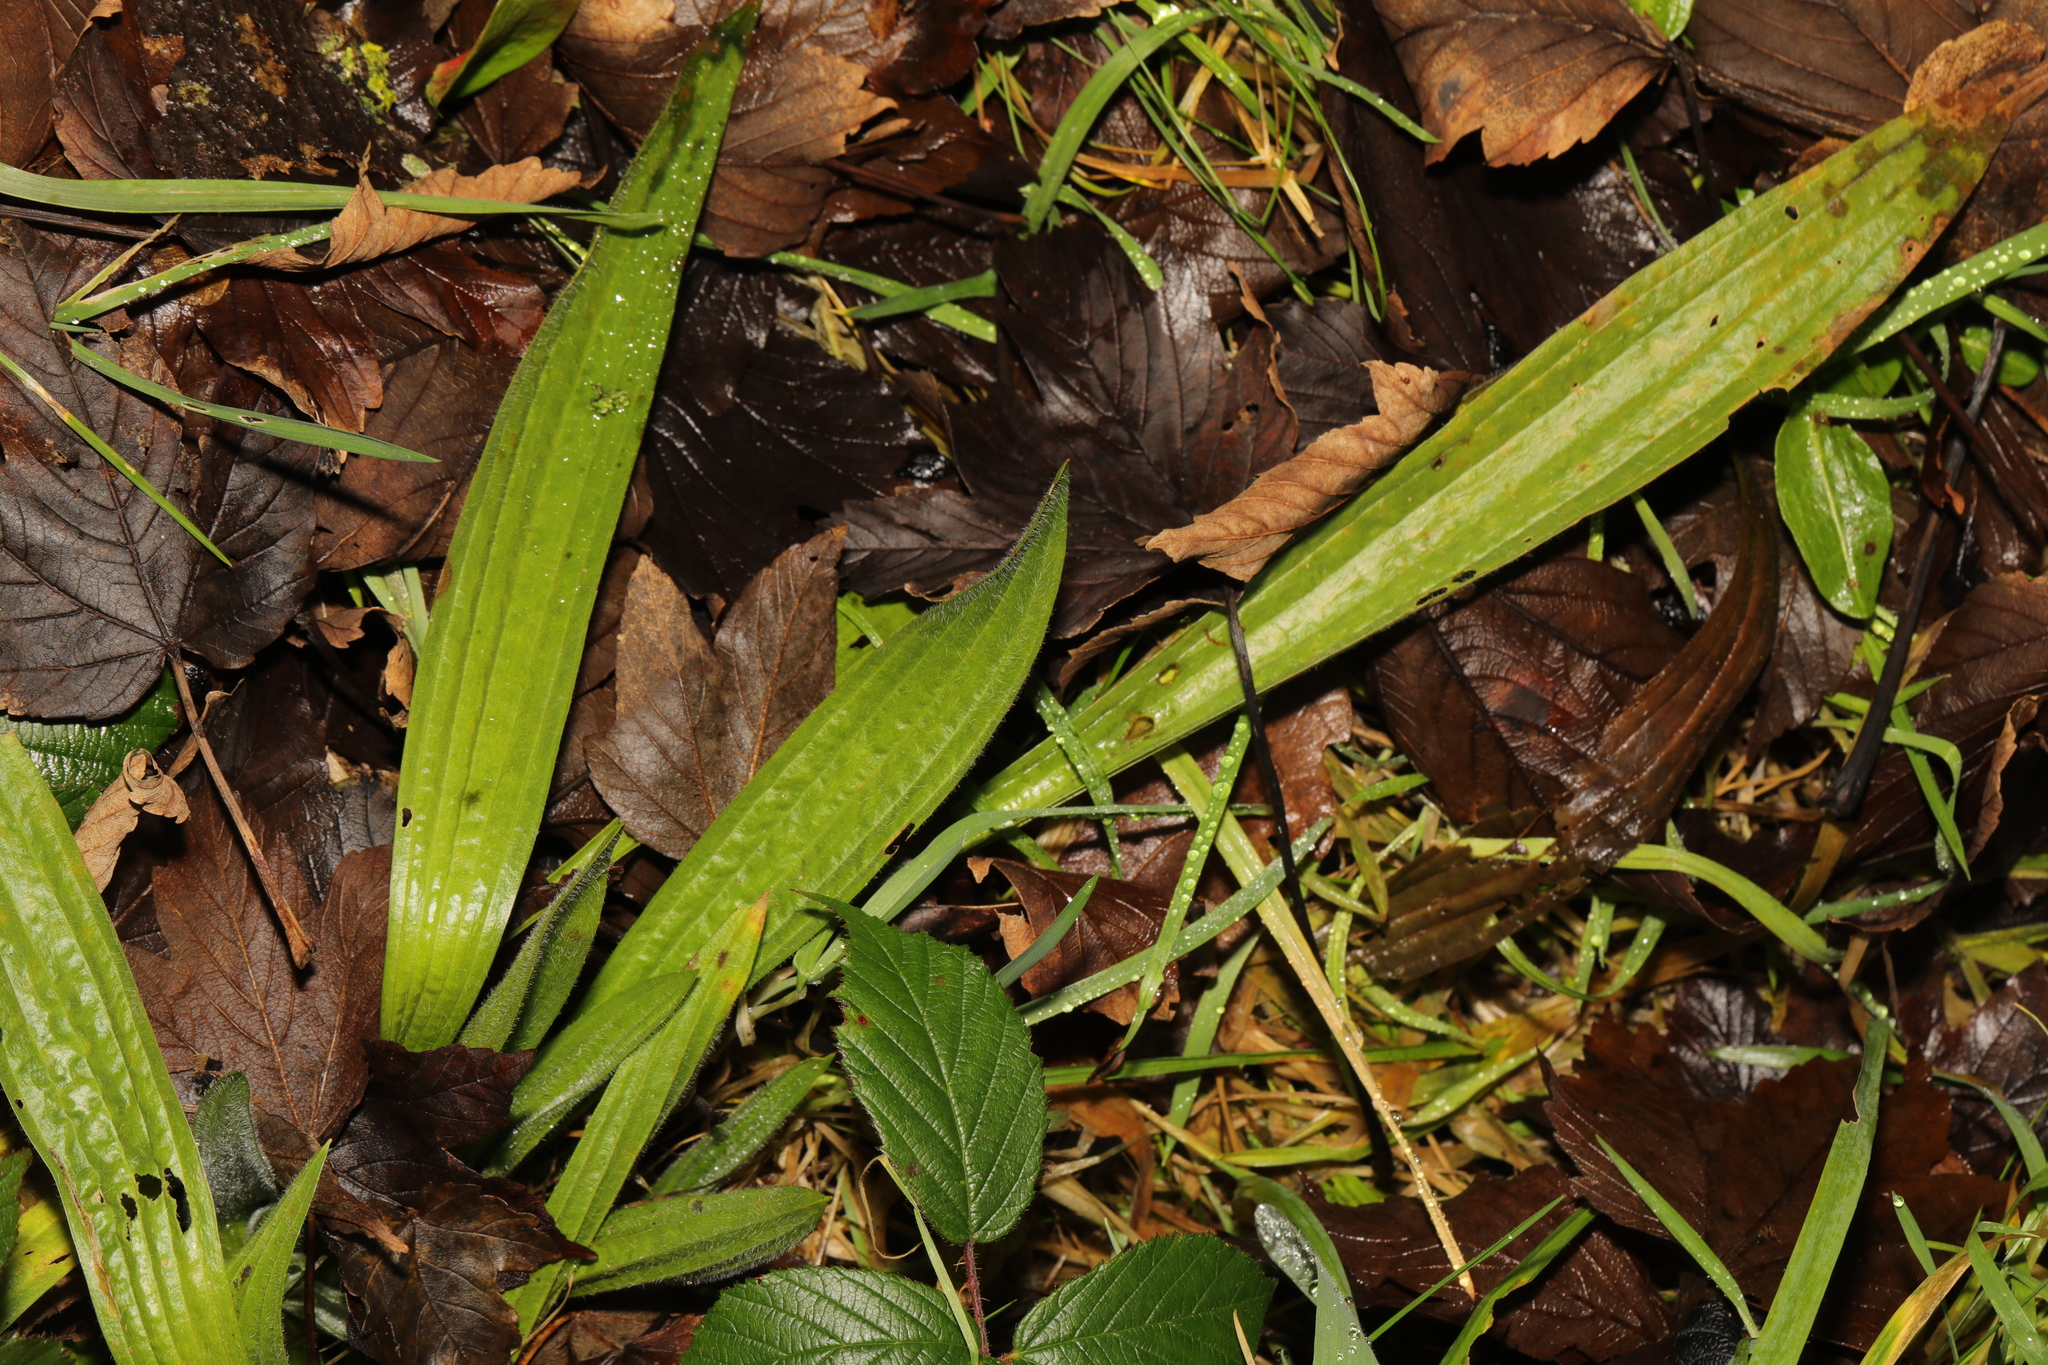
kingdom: Plantae
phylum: Tracheophyta
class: Magnoliopsida
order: Lamiales
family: Plantaginaceae
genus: Plantago
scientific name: Plantago lanceolata
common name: Ribwort plantain
